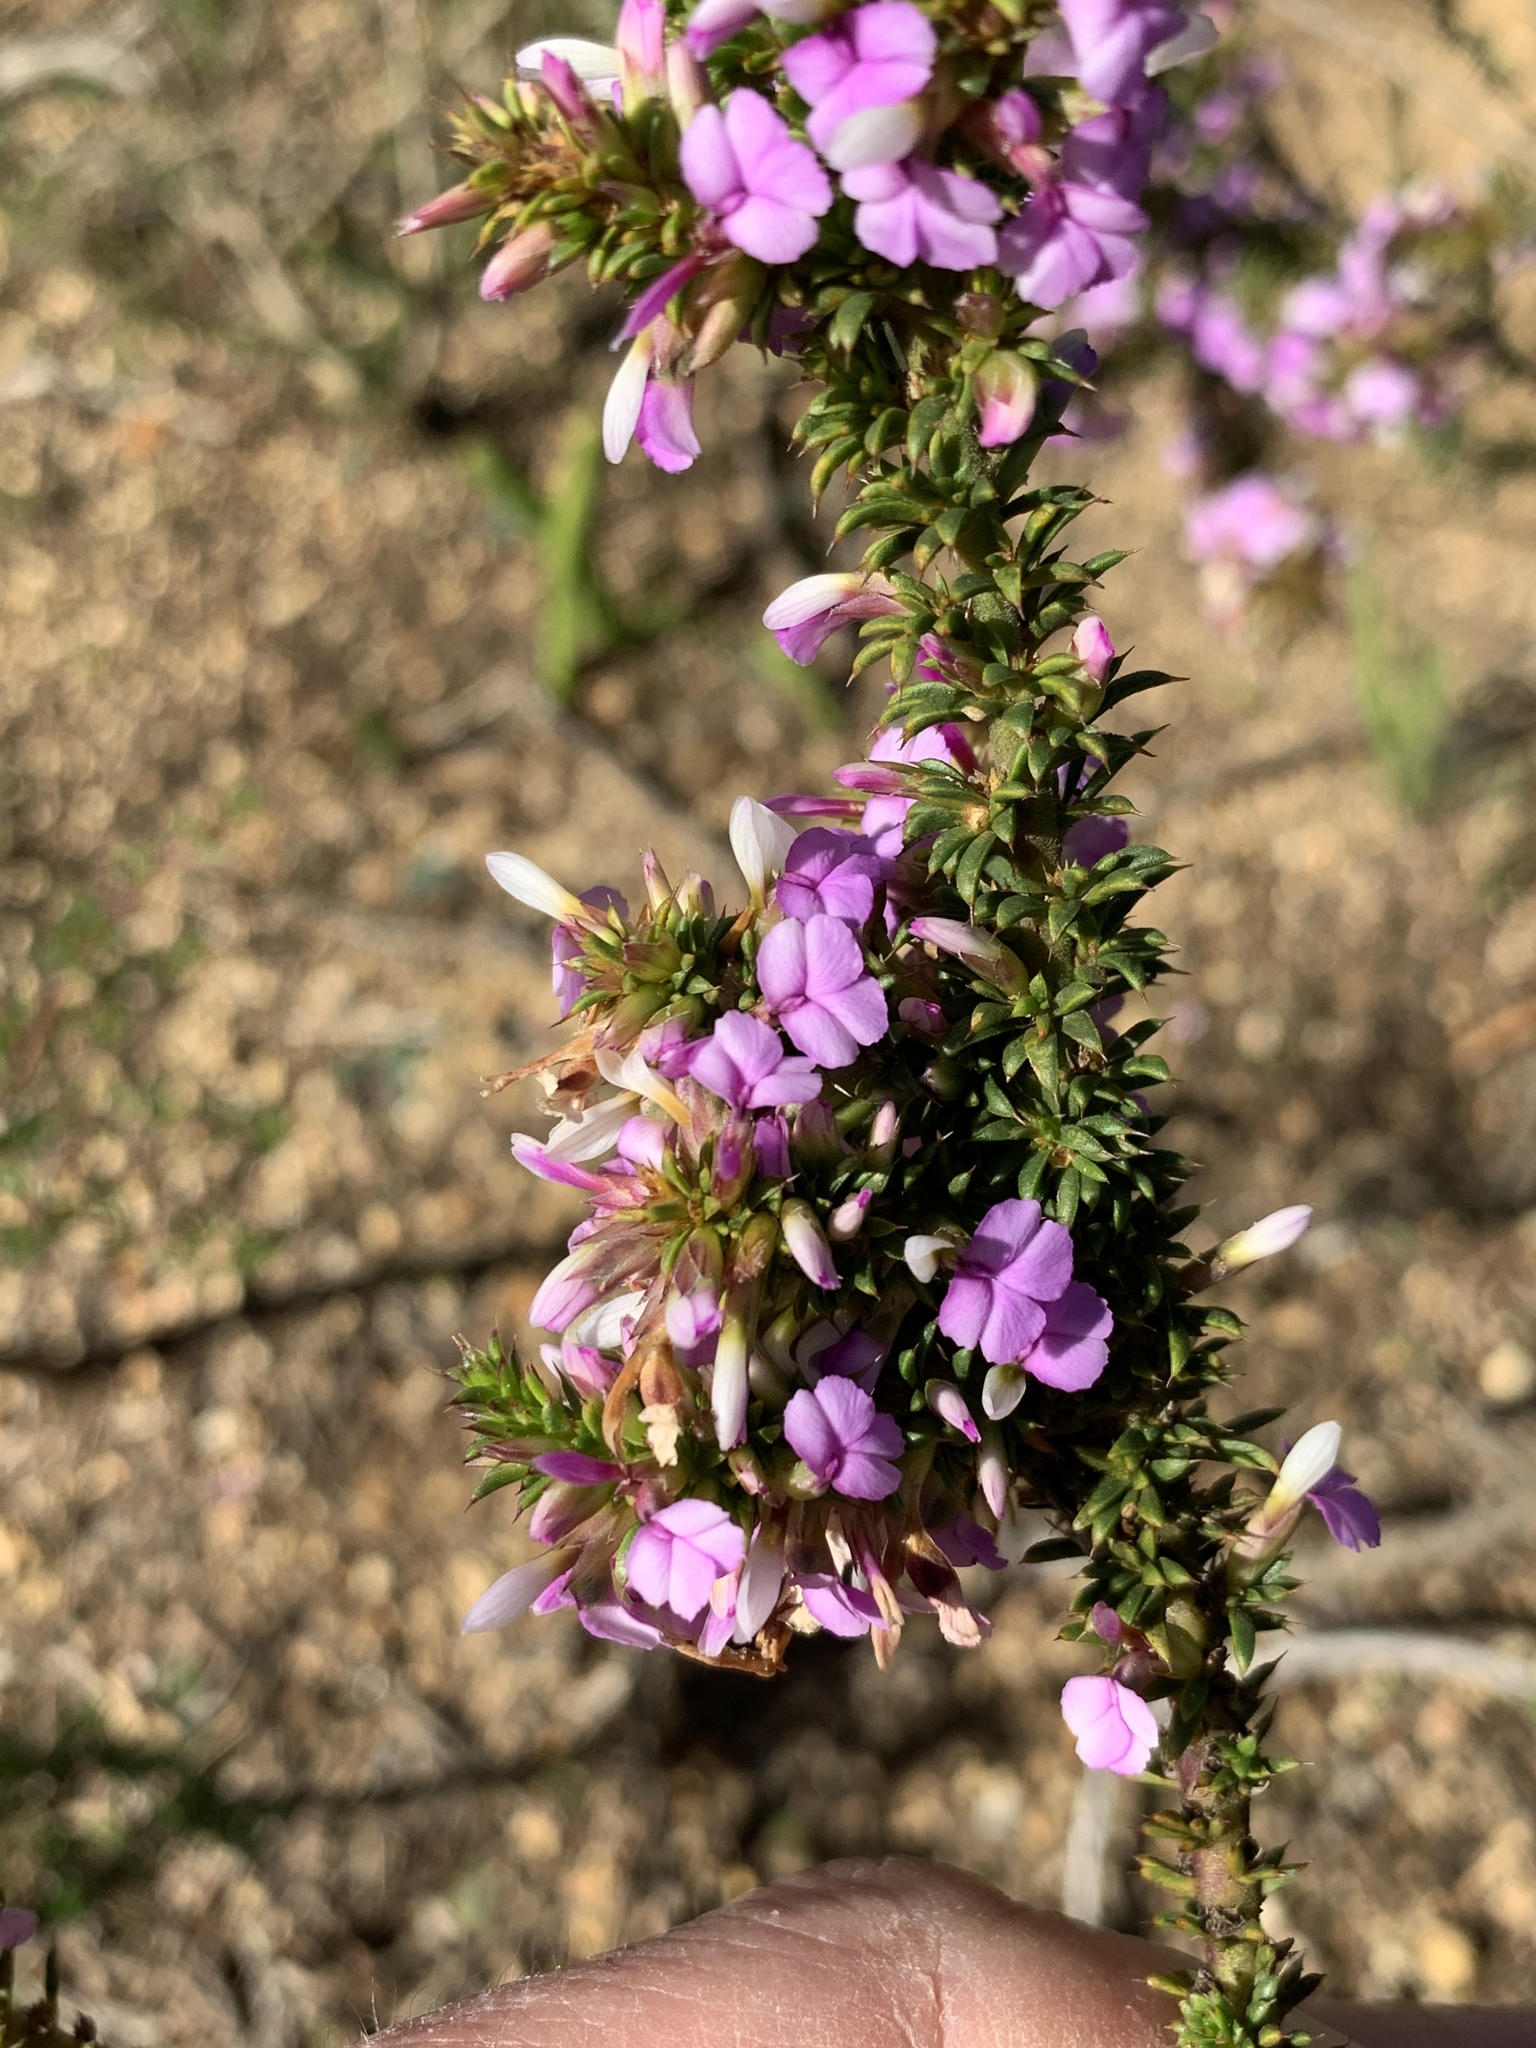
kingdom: Plantae
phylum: Tracheophyta
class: Magnoliopsida
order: Fabales
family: Polygalaceae
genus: Muraltia
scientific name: Muraltia heisteria
